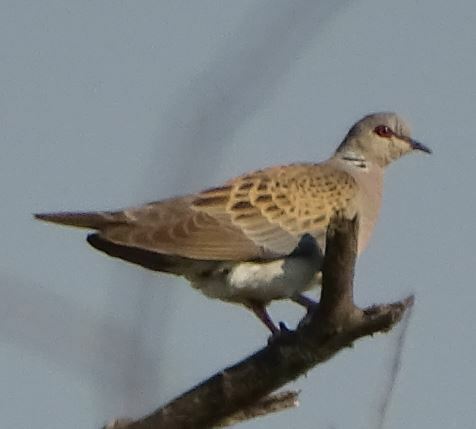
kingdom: Animalia
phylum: Chordata
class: Aves
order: Columbiformes
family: Columbidae
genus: Streptopelia
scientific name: Streptopelia turtur
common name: European turtle dove
